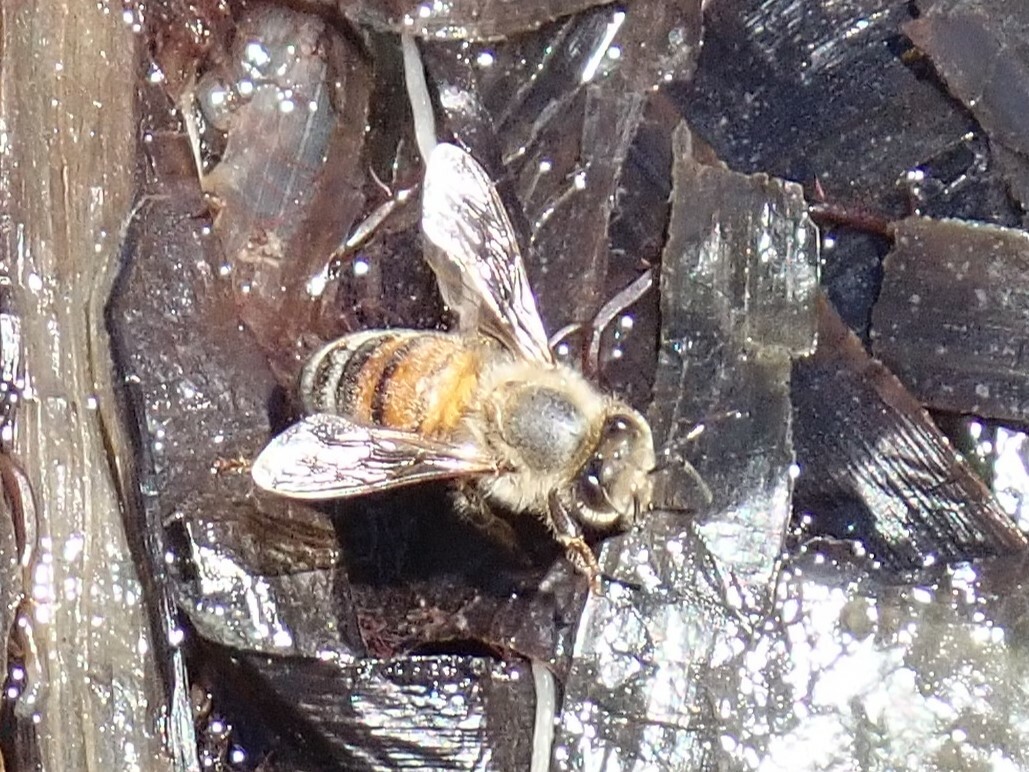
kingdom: Animalia
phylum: Arthropoda
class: Insecta
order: Hymenoptera
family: Apidae
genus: Apis
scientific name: Apis mellifera
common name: Honey bee
